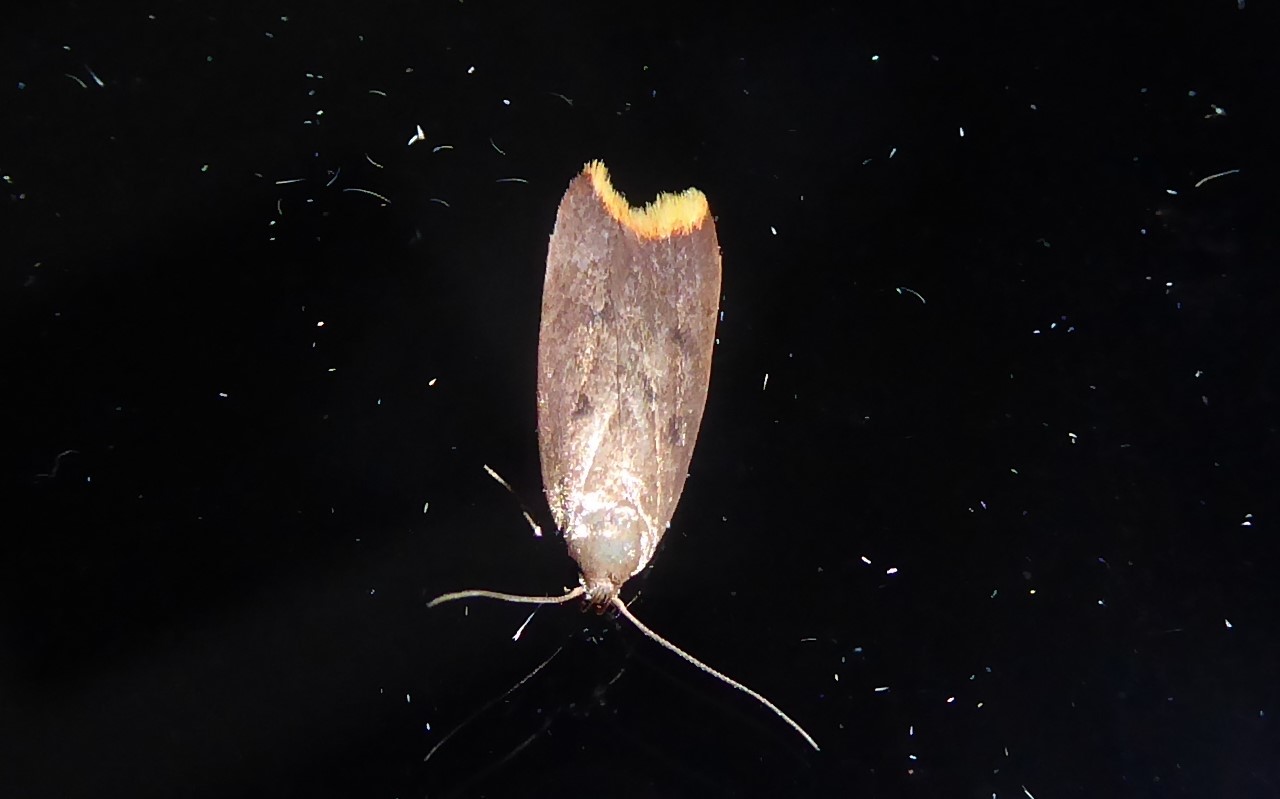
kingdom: Animalia
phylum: Arthropoda
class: Insecta
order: Lepidoptera
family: Oecophoridae
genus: Tachystola
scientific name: Tachystola acroxantha
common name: Ruddy streak
